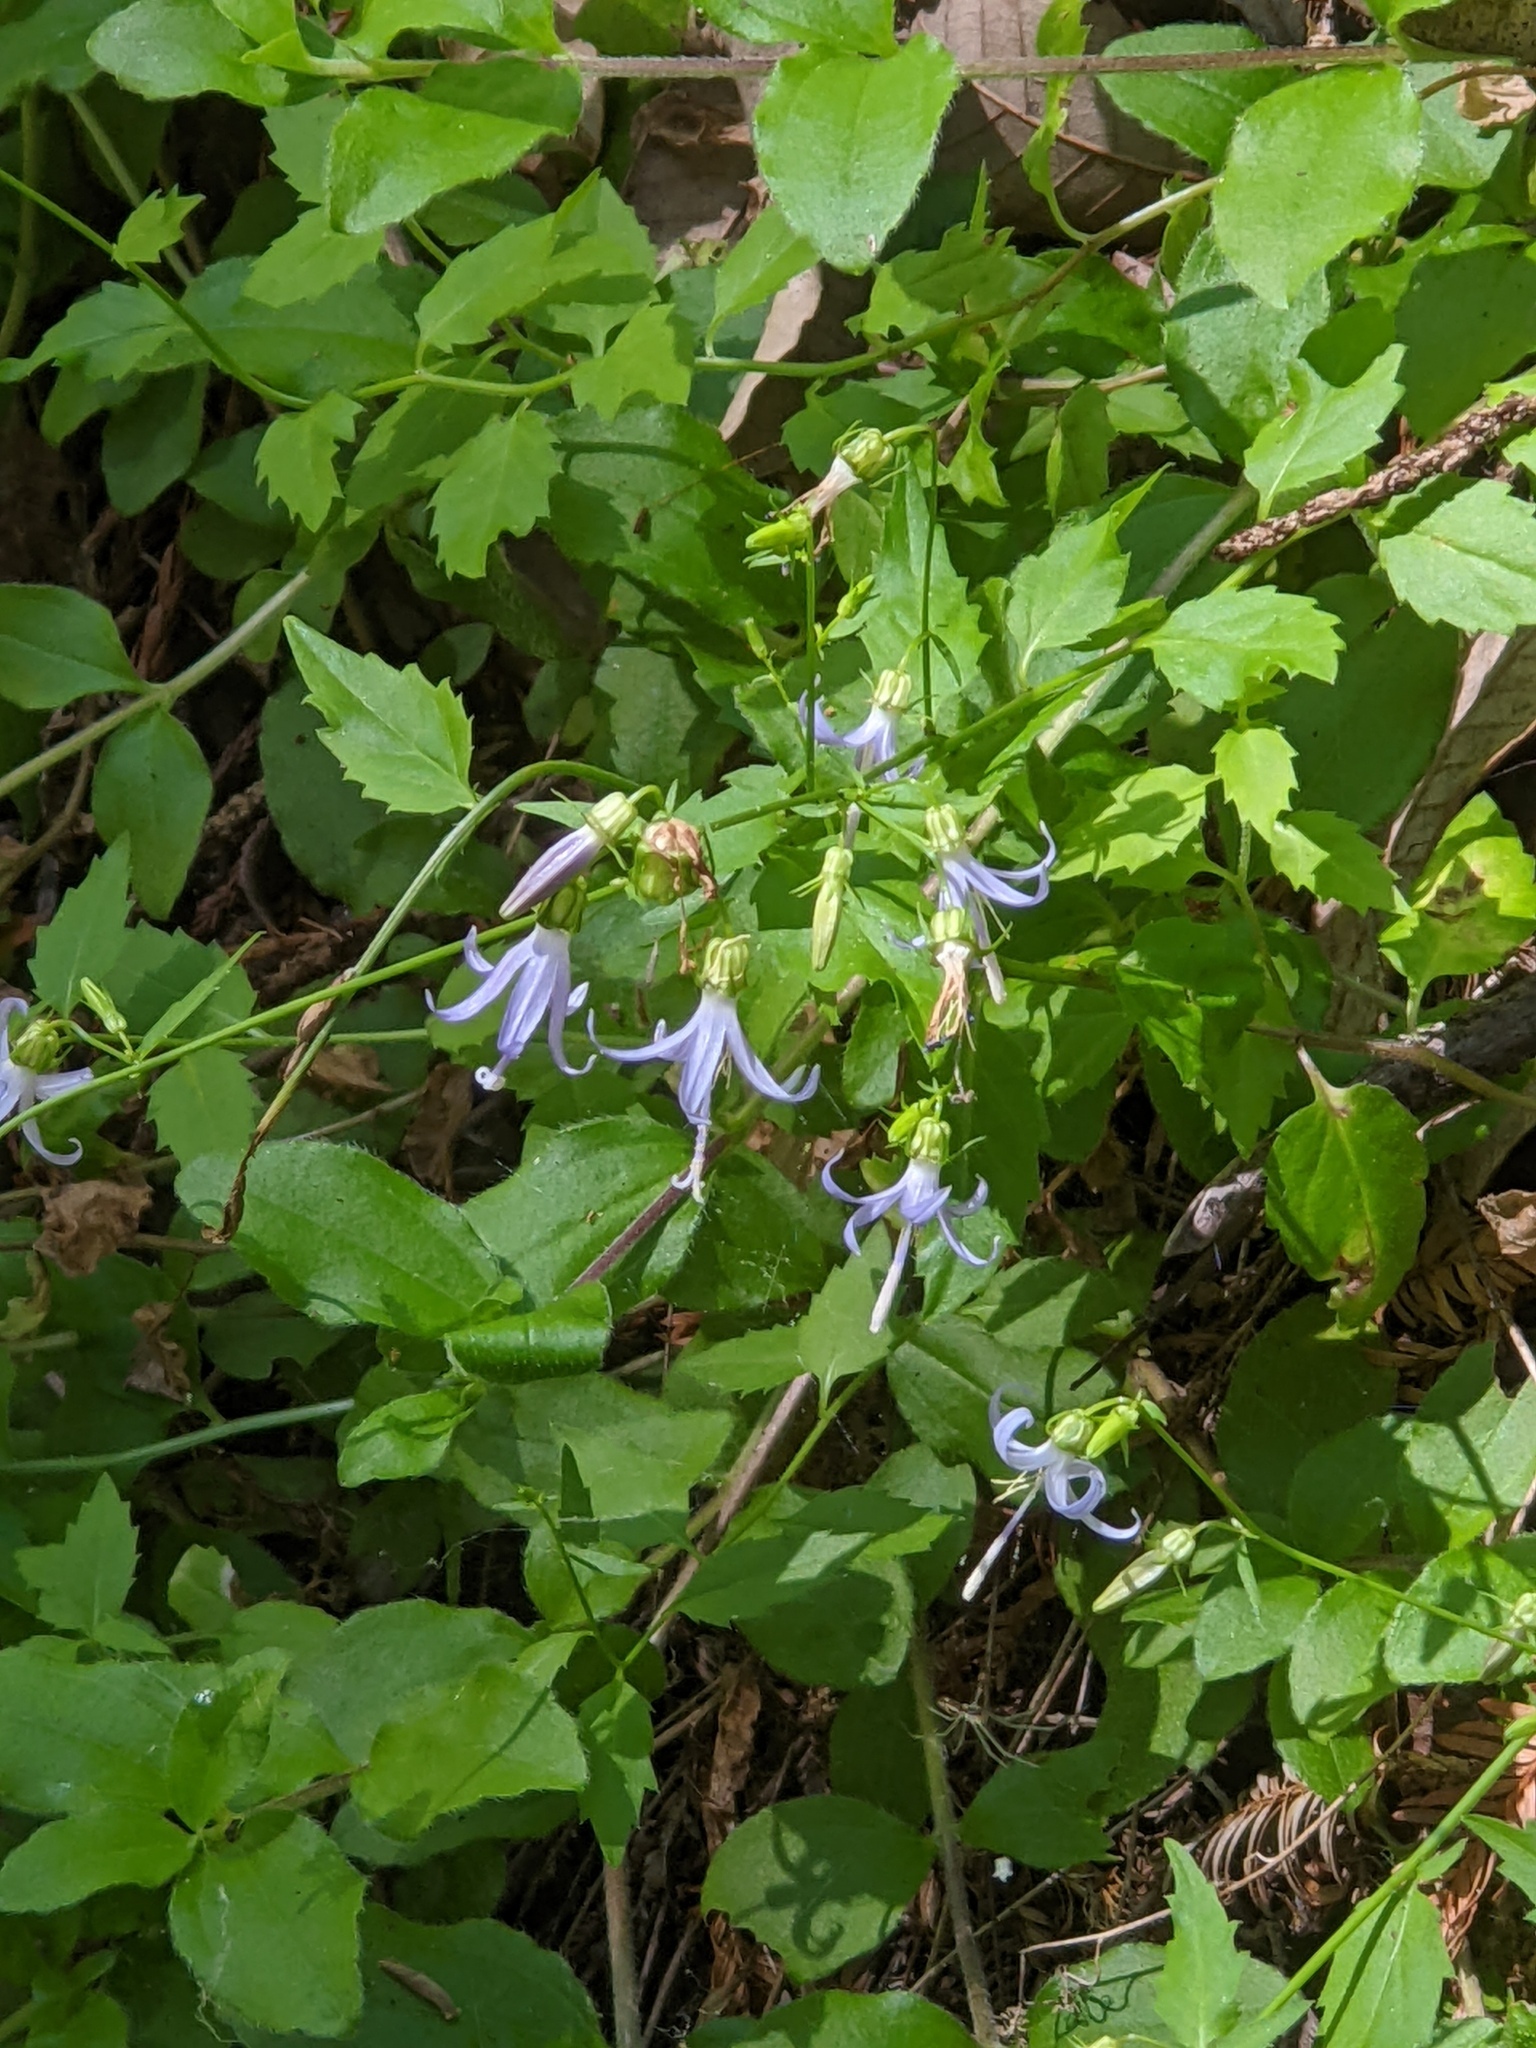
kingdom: Plantae
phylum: Tracheophyta
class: Magnoliopsida
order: Asterales
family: Campanulaceae
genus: Smithiastrum
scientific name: Smithiastrum prenanthoides
